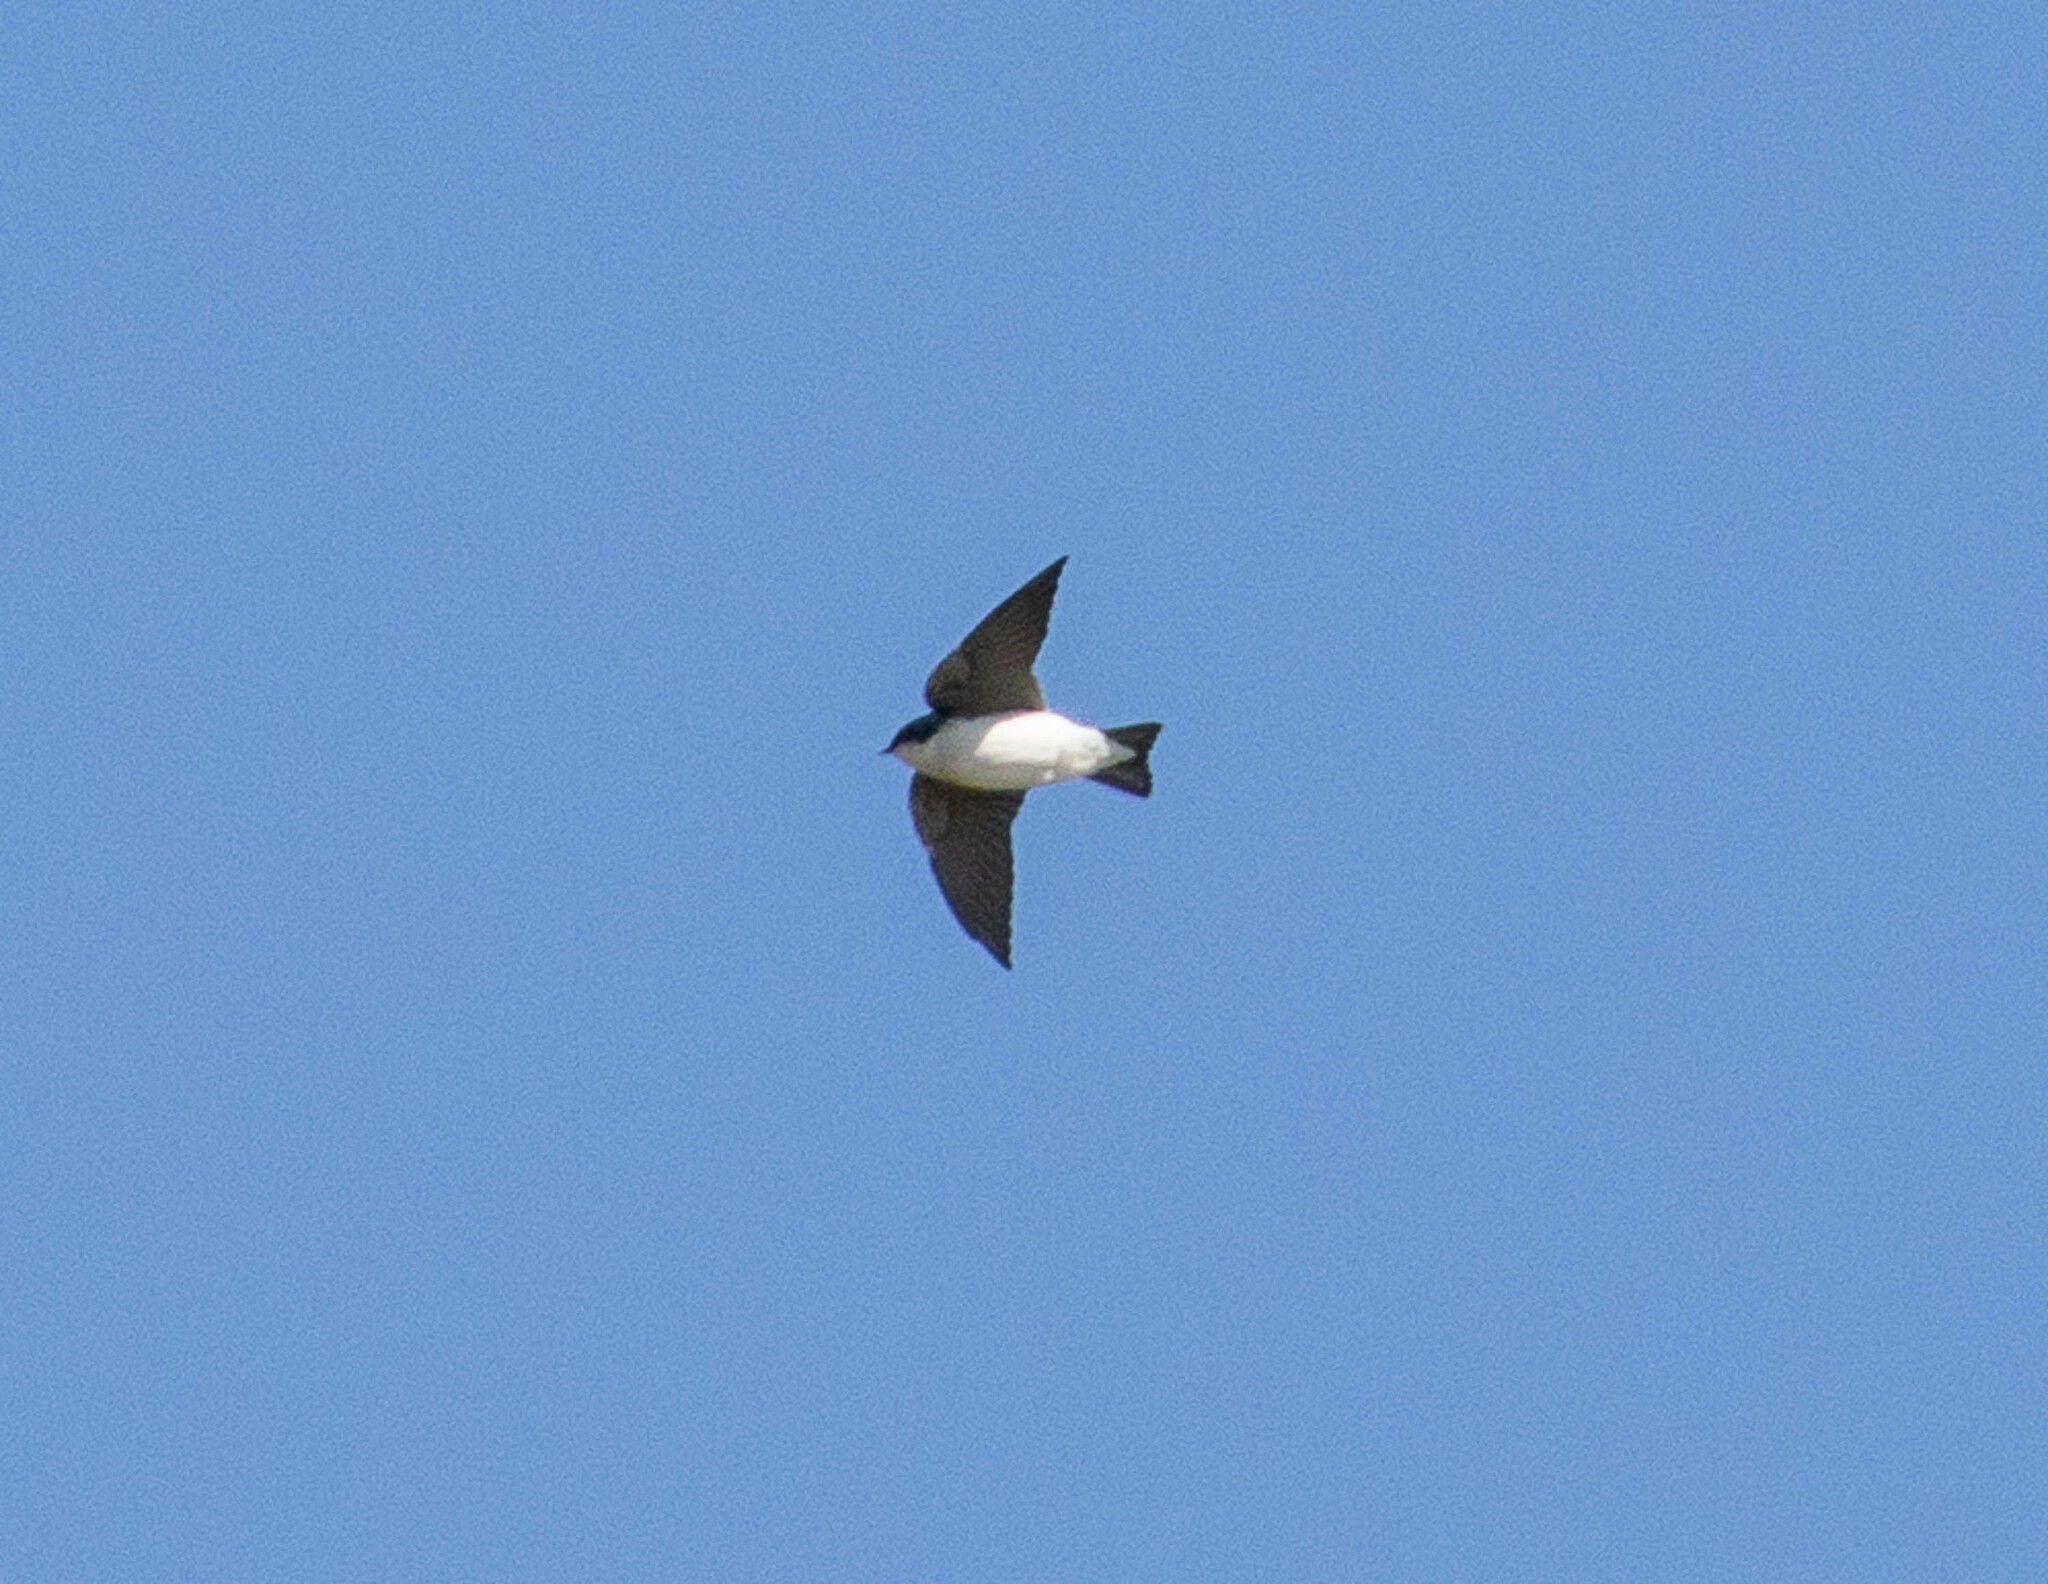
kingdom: Animalia
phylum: Chordata
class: Aves
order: Passeriformes
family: Hirundinidae
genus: Tachycineta
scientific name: Tachycineta bicolor
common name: Tree swallow
